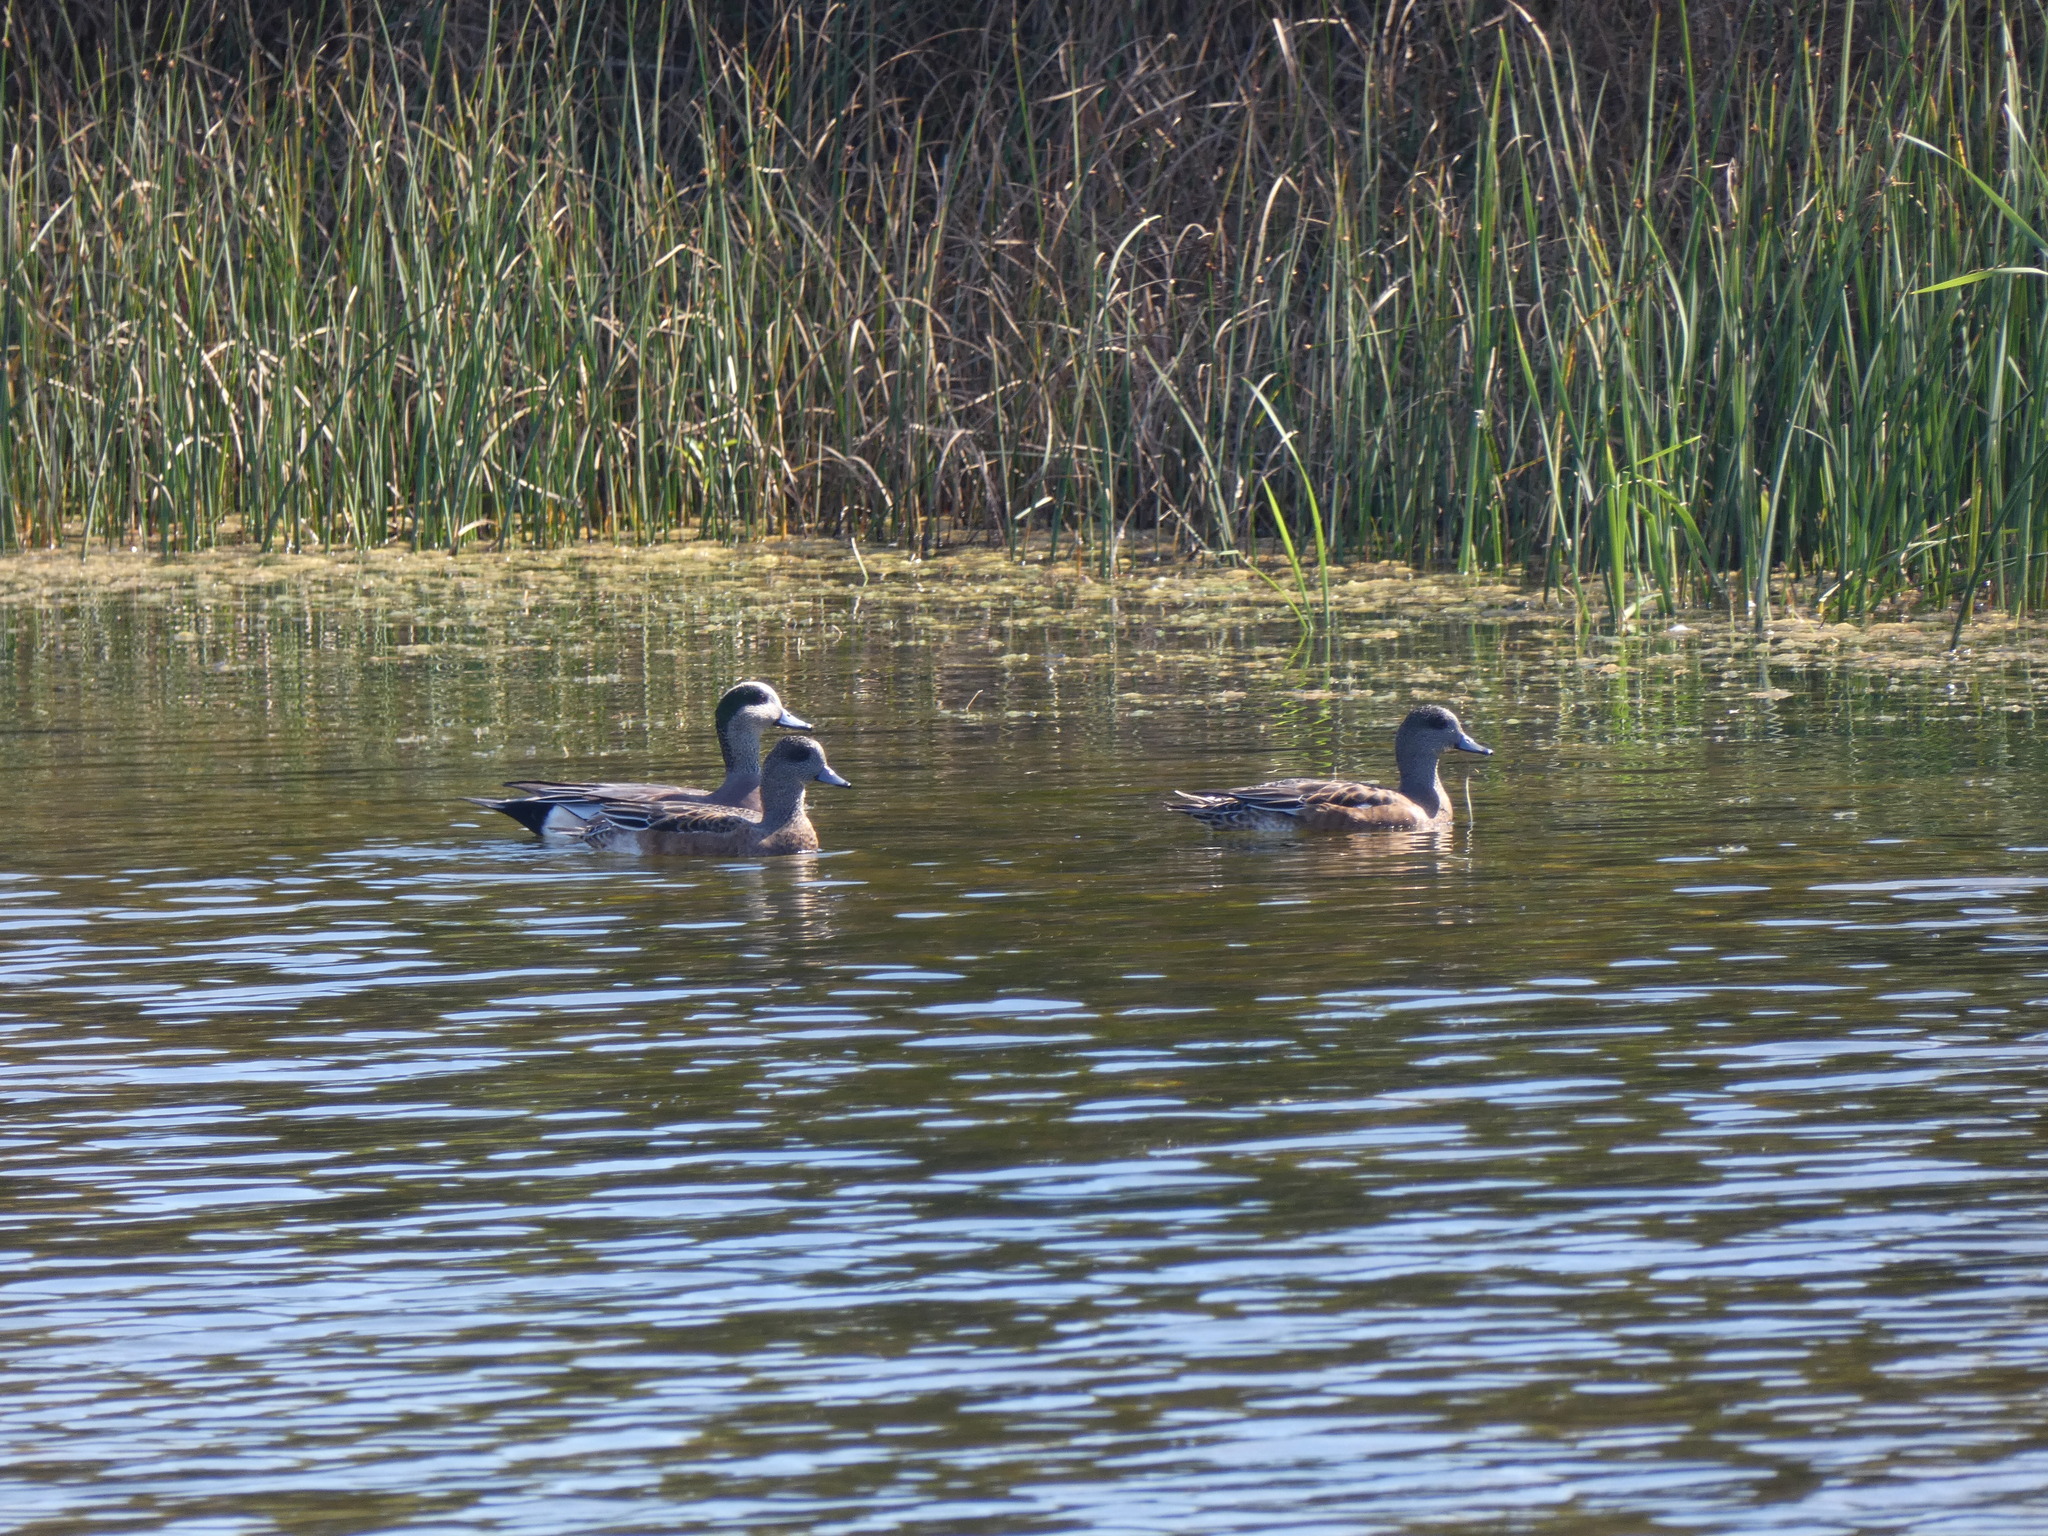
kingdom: Animalia
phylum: Chordata
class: Aves
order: Anseriformes
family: Anatidae
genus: Mareca
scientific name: Mareca americana
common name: American wigeon
